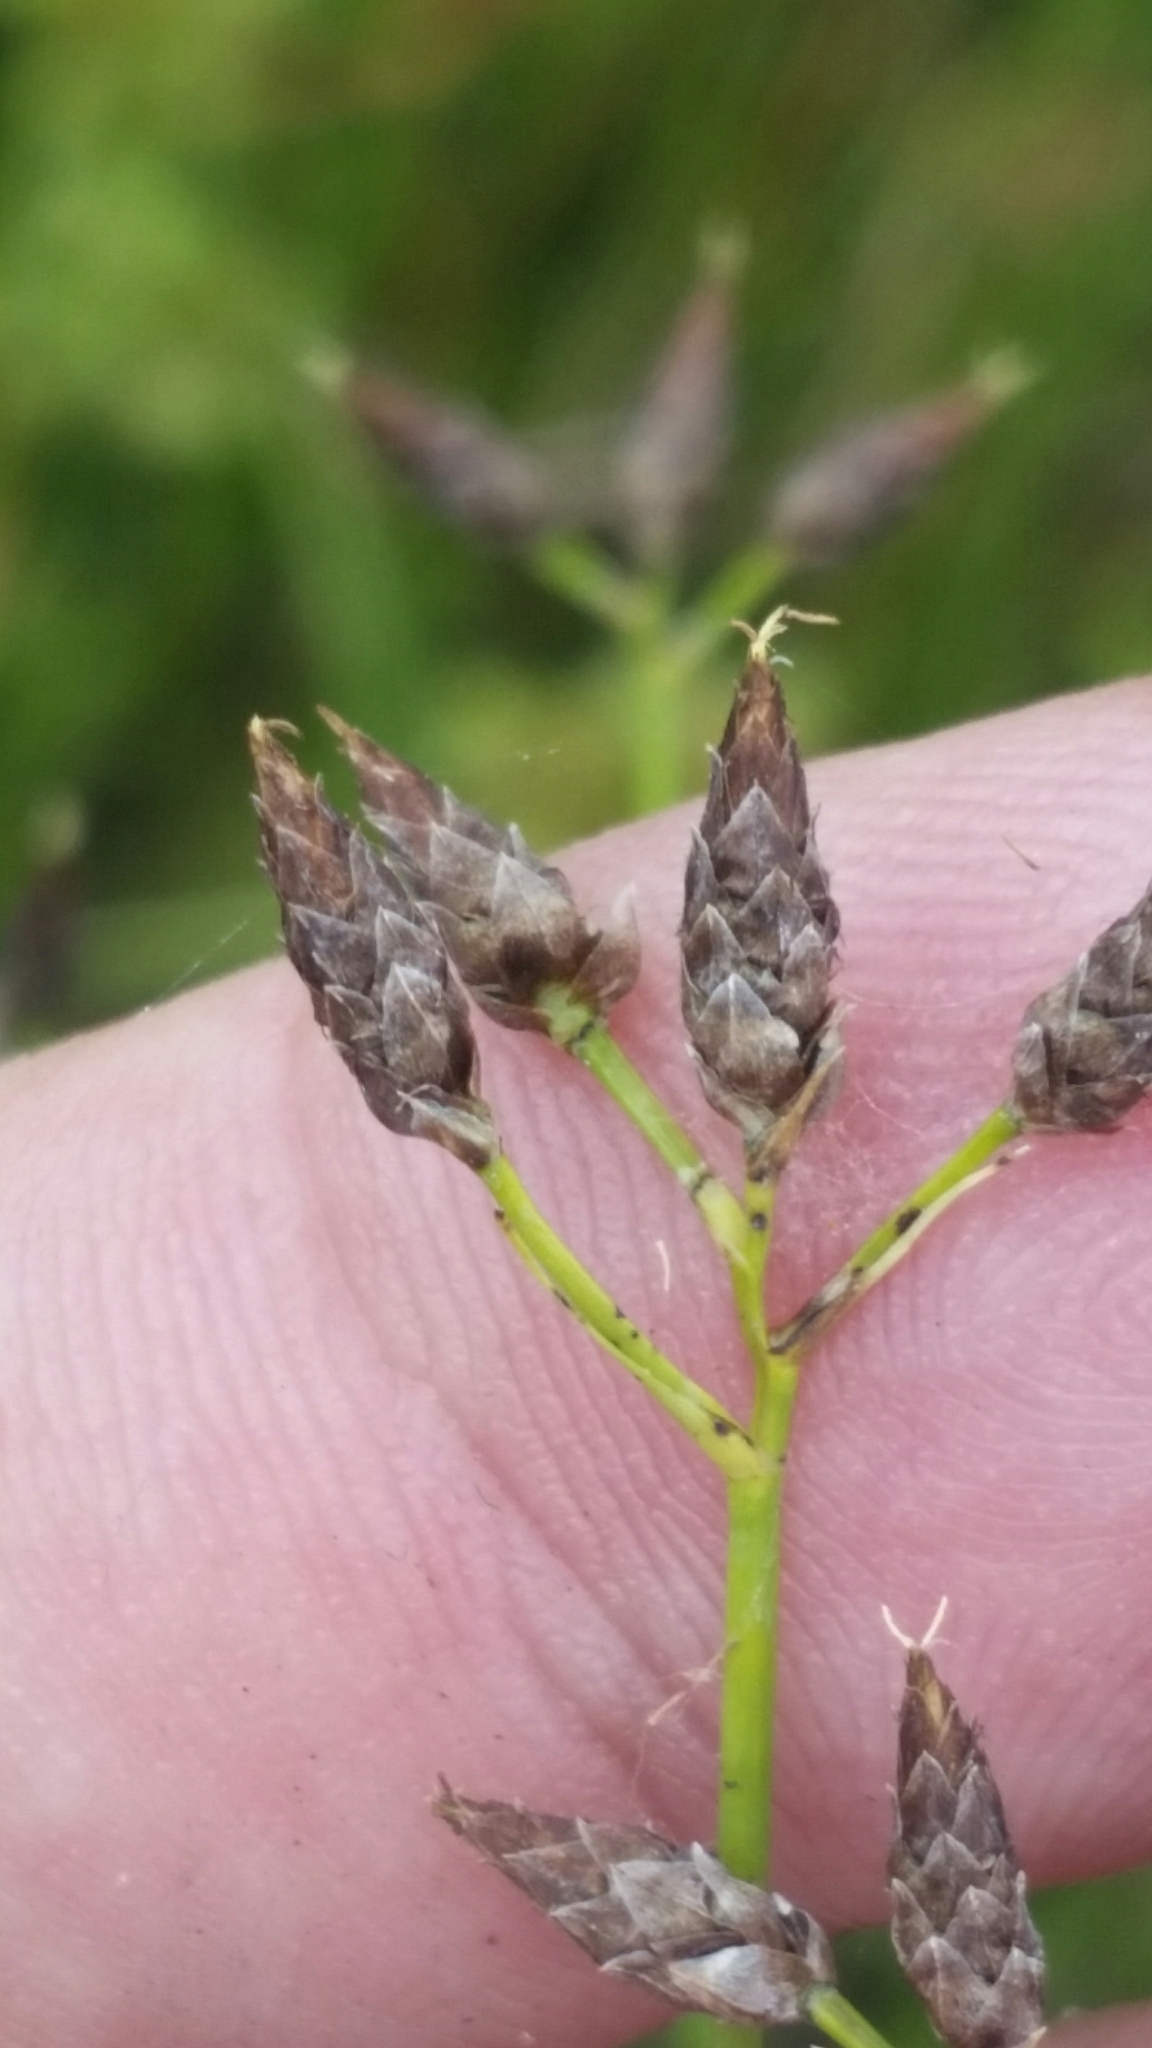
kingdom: Plantae
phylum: Tracheophyta
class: Liliopsida
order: Poales
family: Cyperaceae
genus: Rhynchospora
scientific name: Rhynchospora nitens
